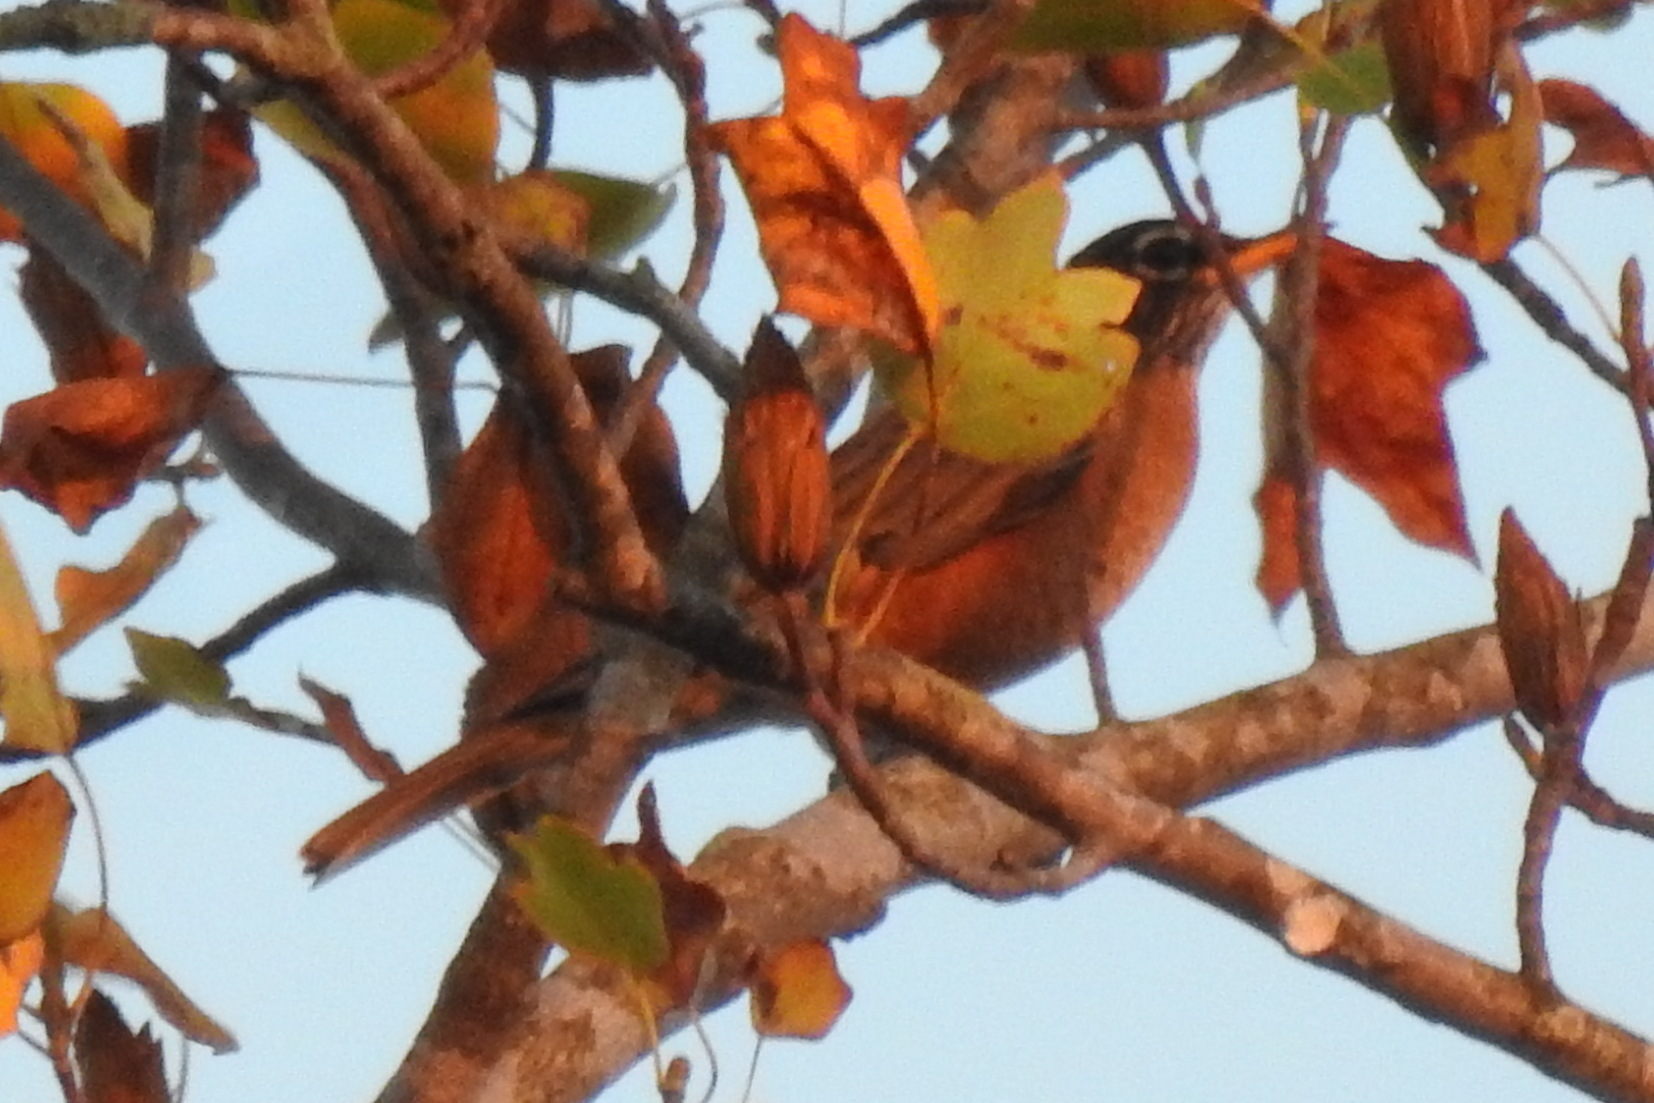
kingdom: Animalia
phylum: Chordata
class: Aves
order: Passeriformes
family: Turdidae
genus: Turdus
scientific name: Turdus migratorius
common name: American robin
